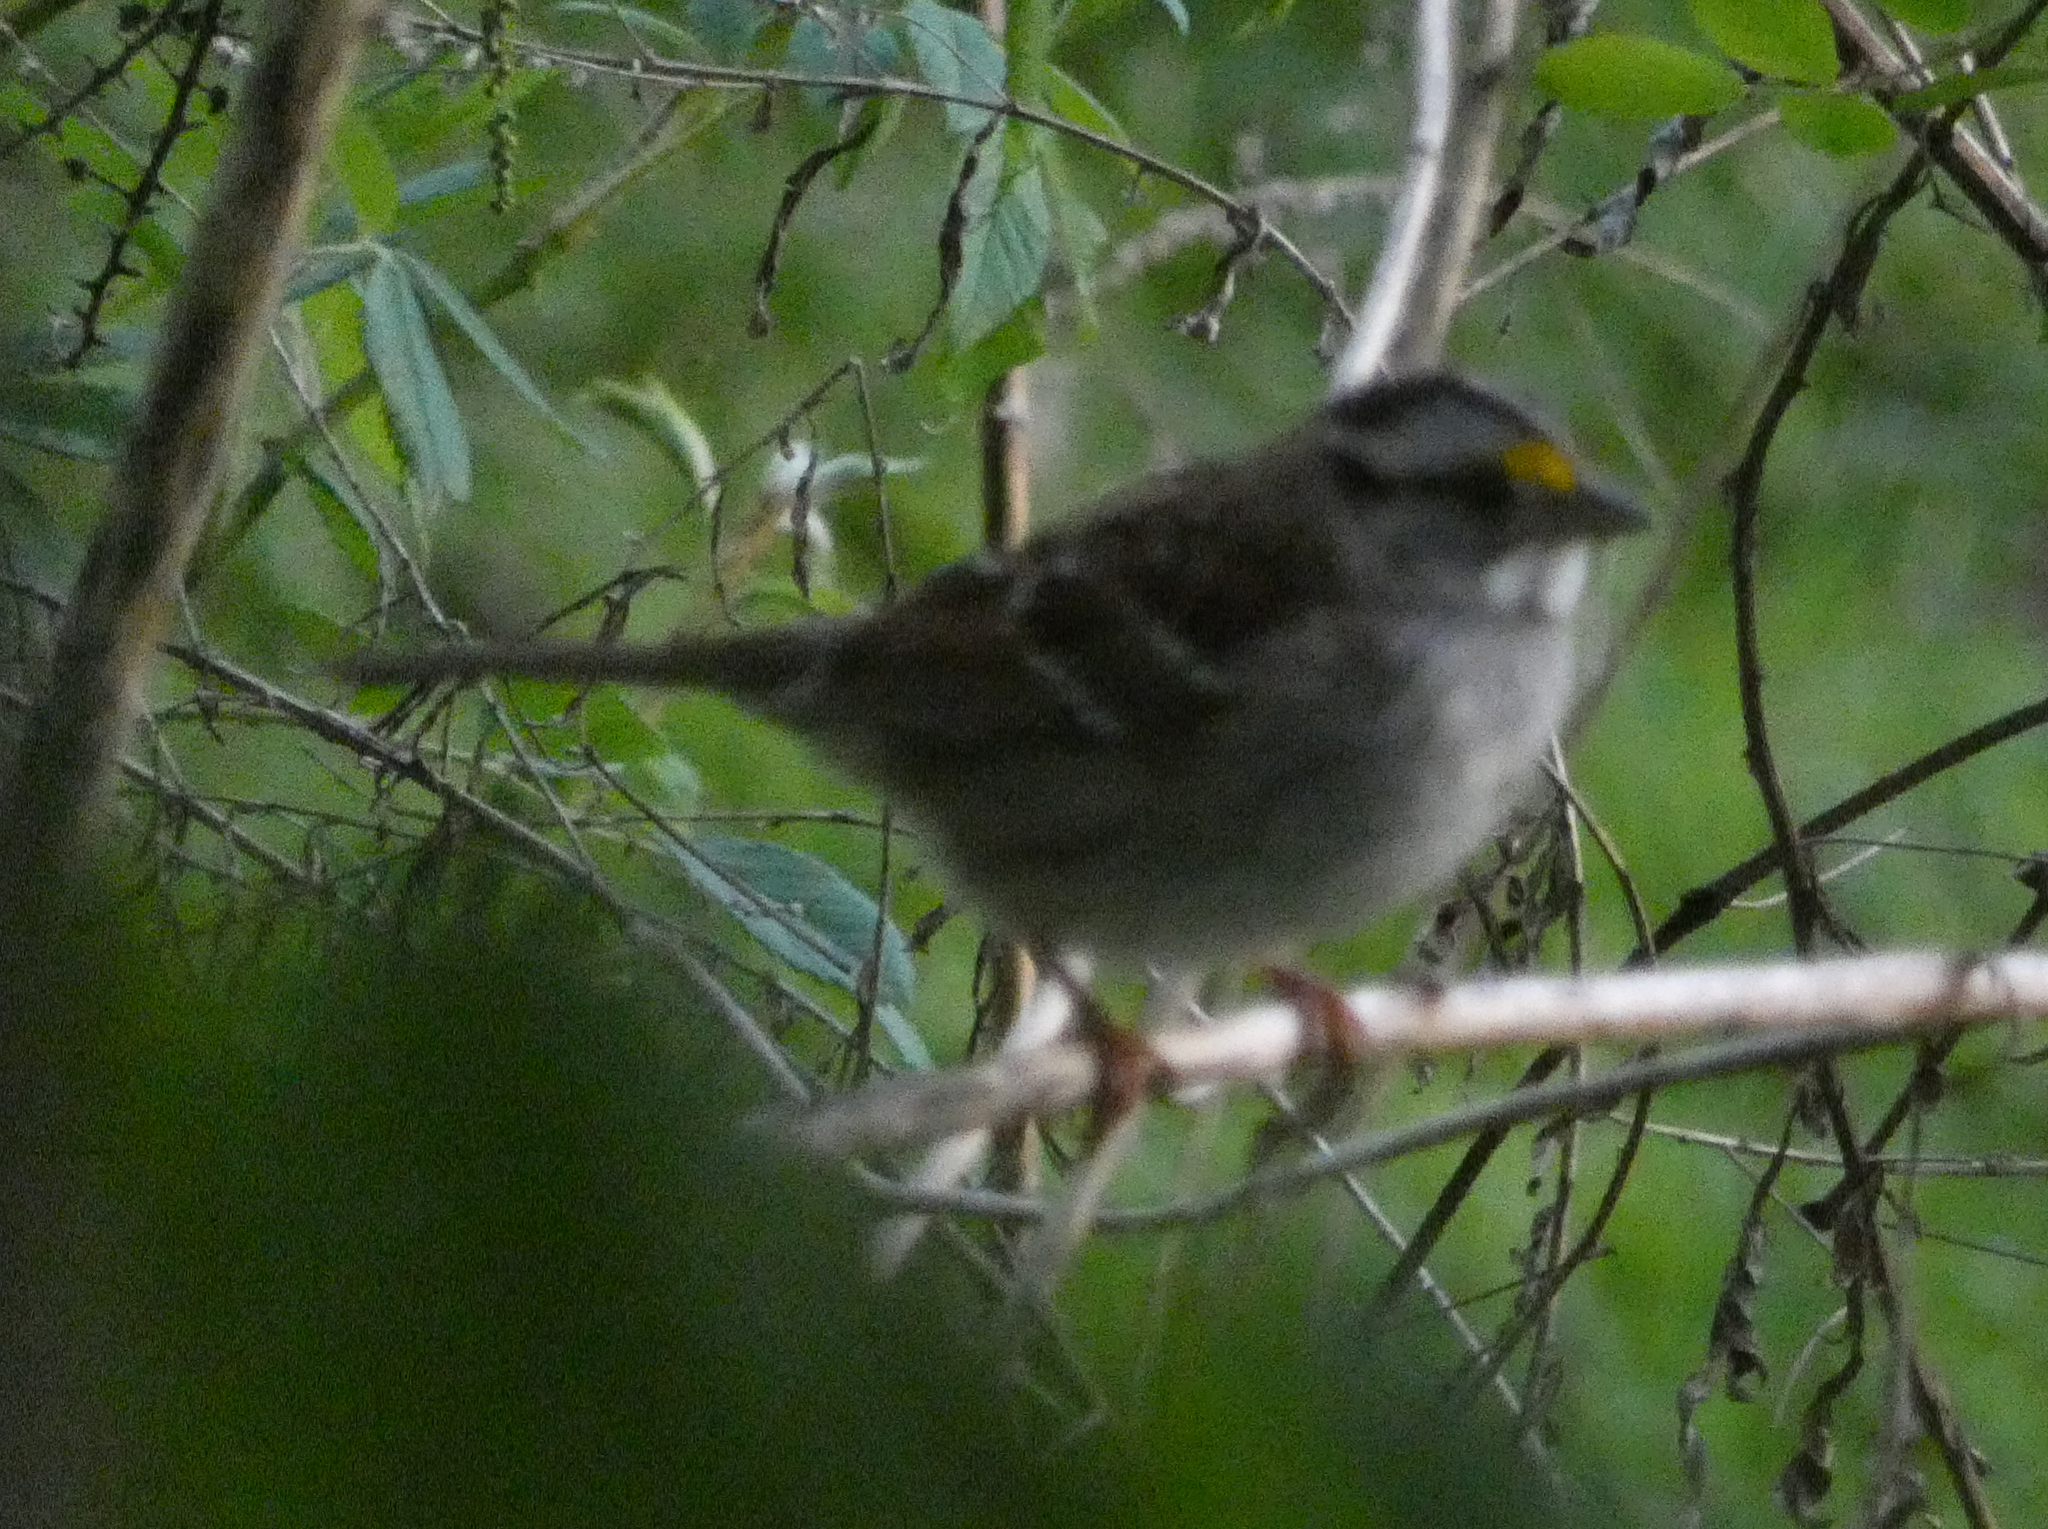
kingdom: Animalia
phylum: Chordata
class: Aves
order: Passeriformes
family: Passerellidae
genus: Zonotrichia
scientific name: Zonotrichia albicollis
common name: White-throated sparrow
